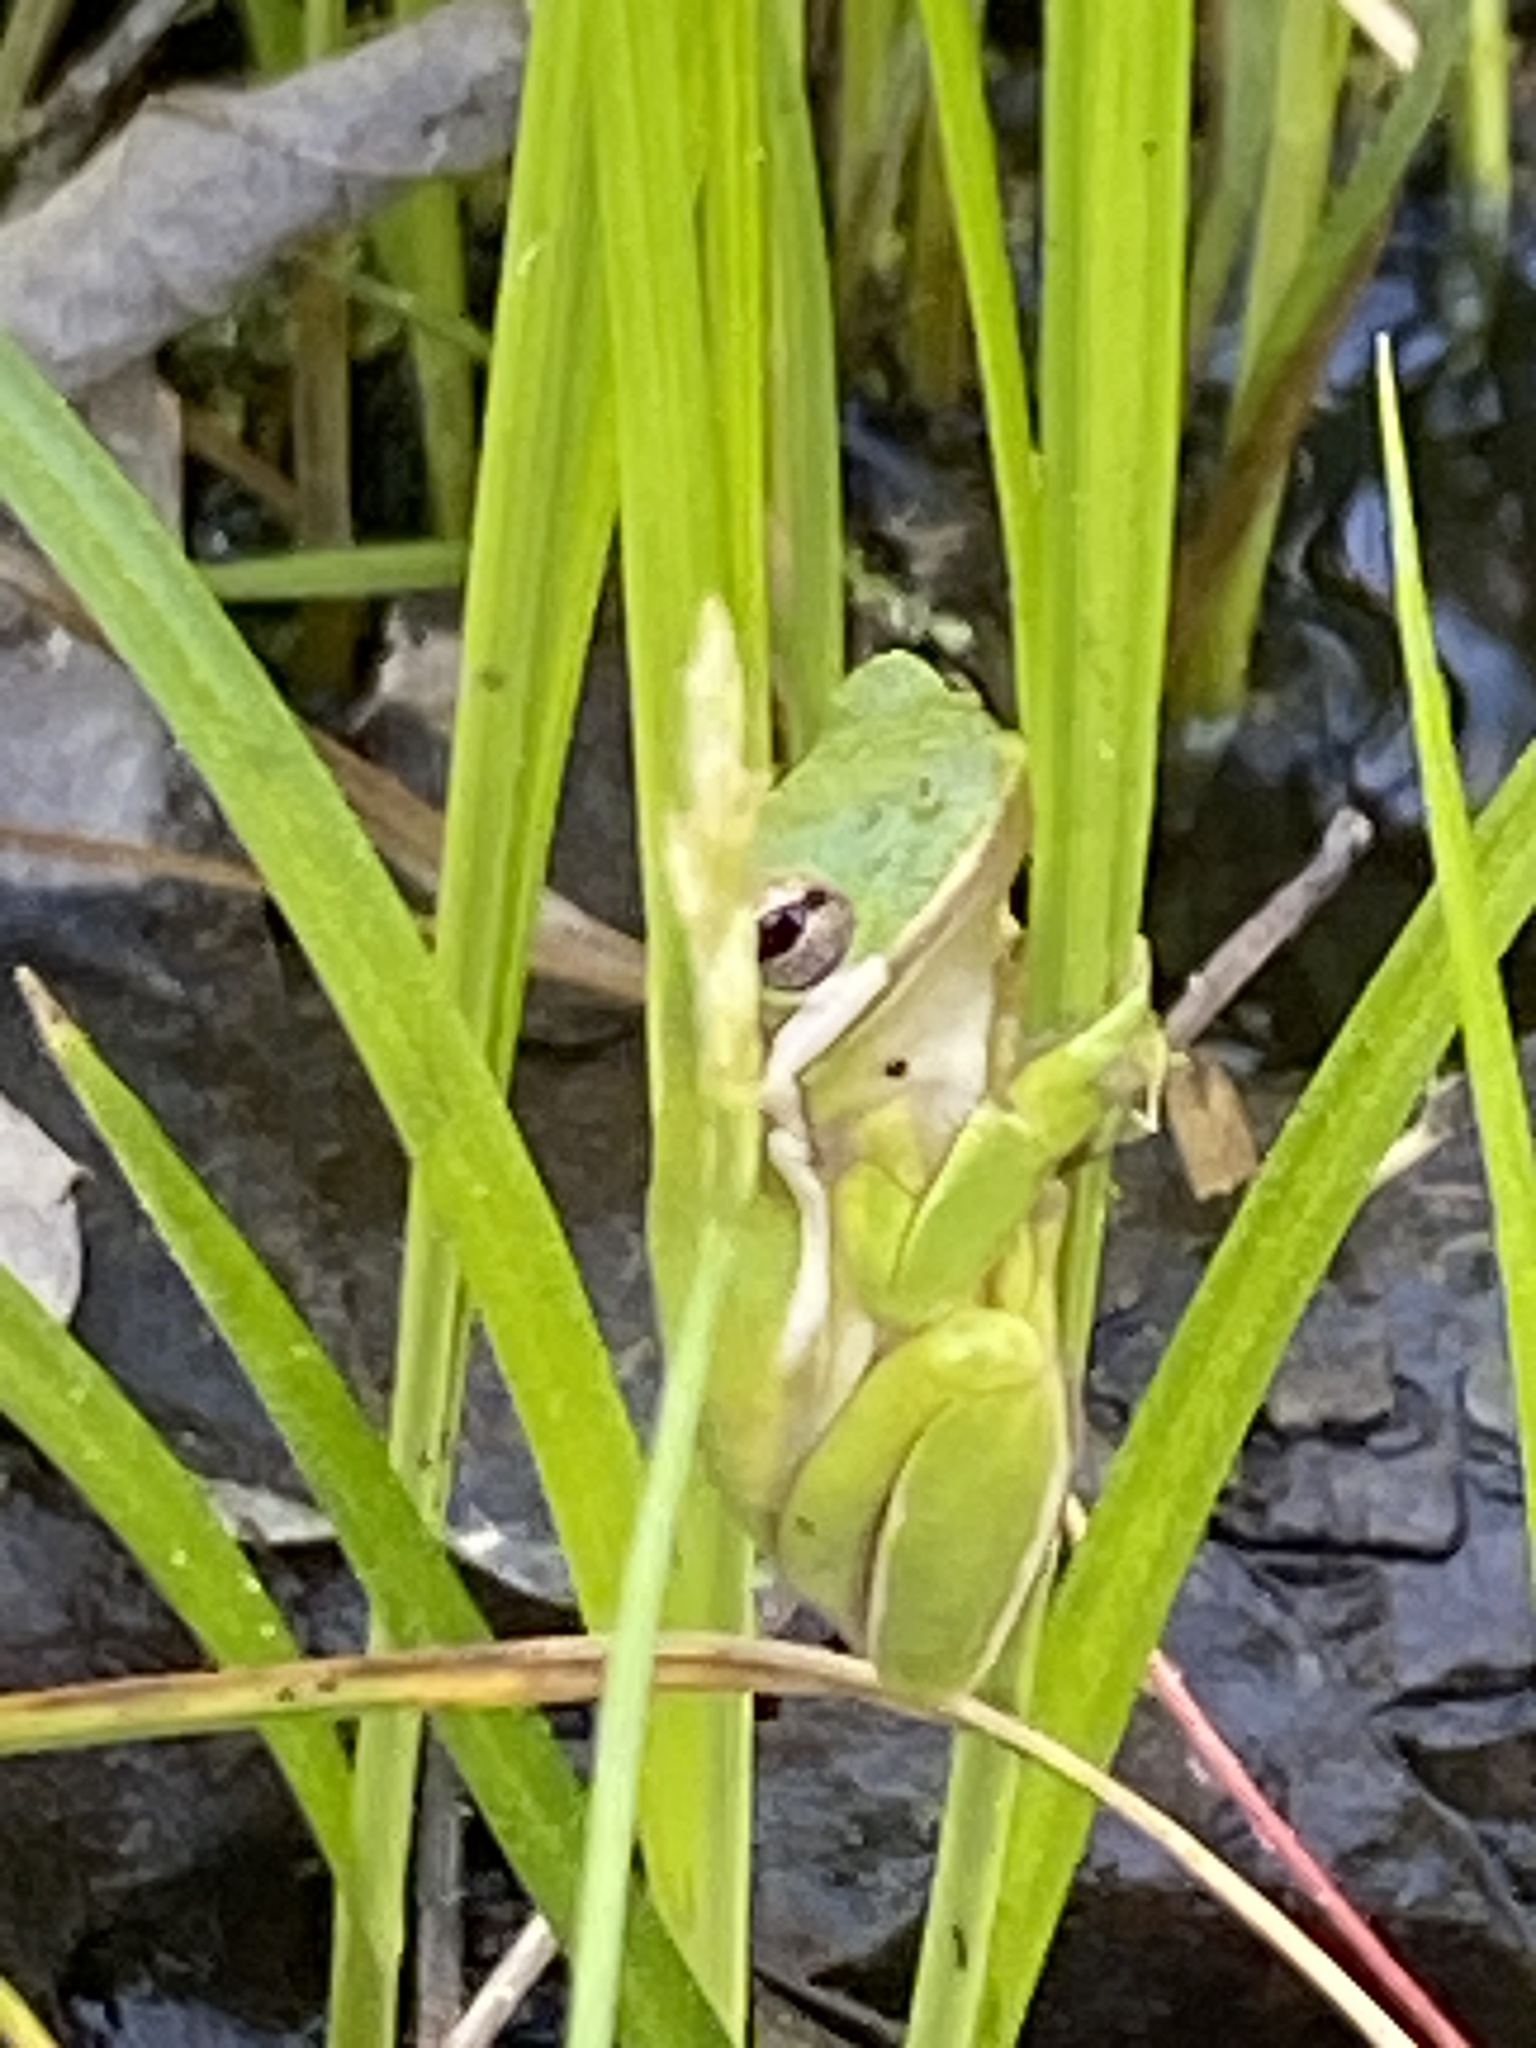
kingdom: Animalia
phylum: Chordata
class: Amphibia
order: Anura
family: Hylidae
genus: Dryophytes
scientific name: Dryophytes cinereus
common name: Green treefrog
